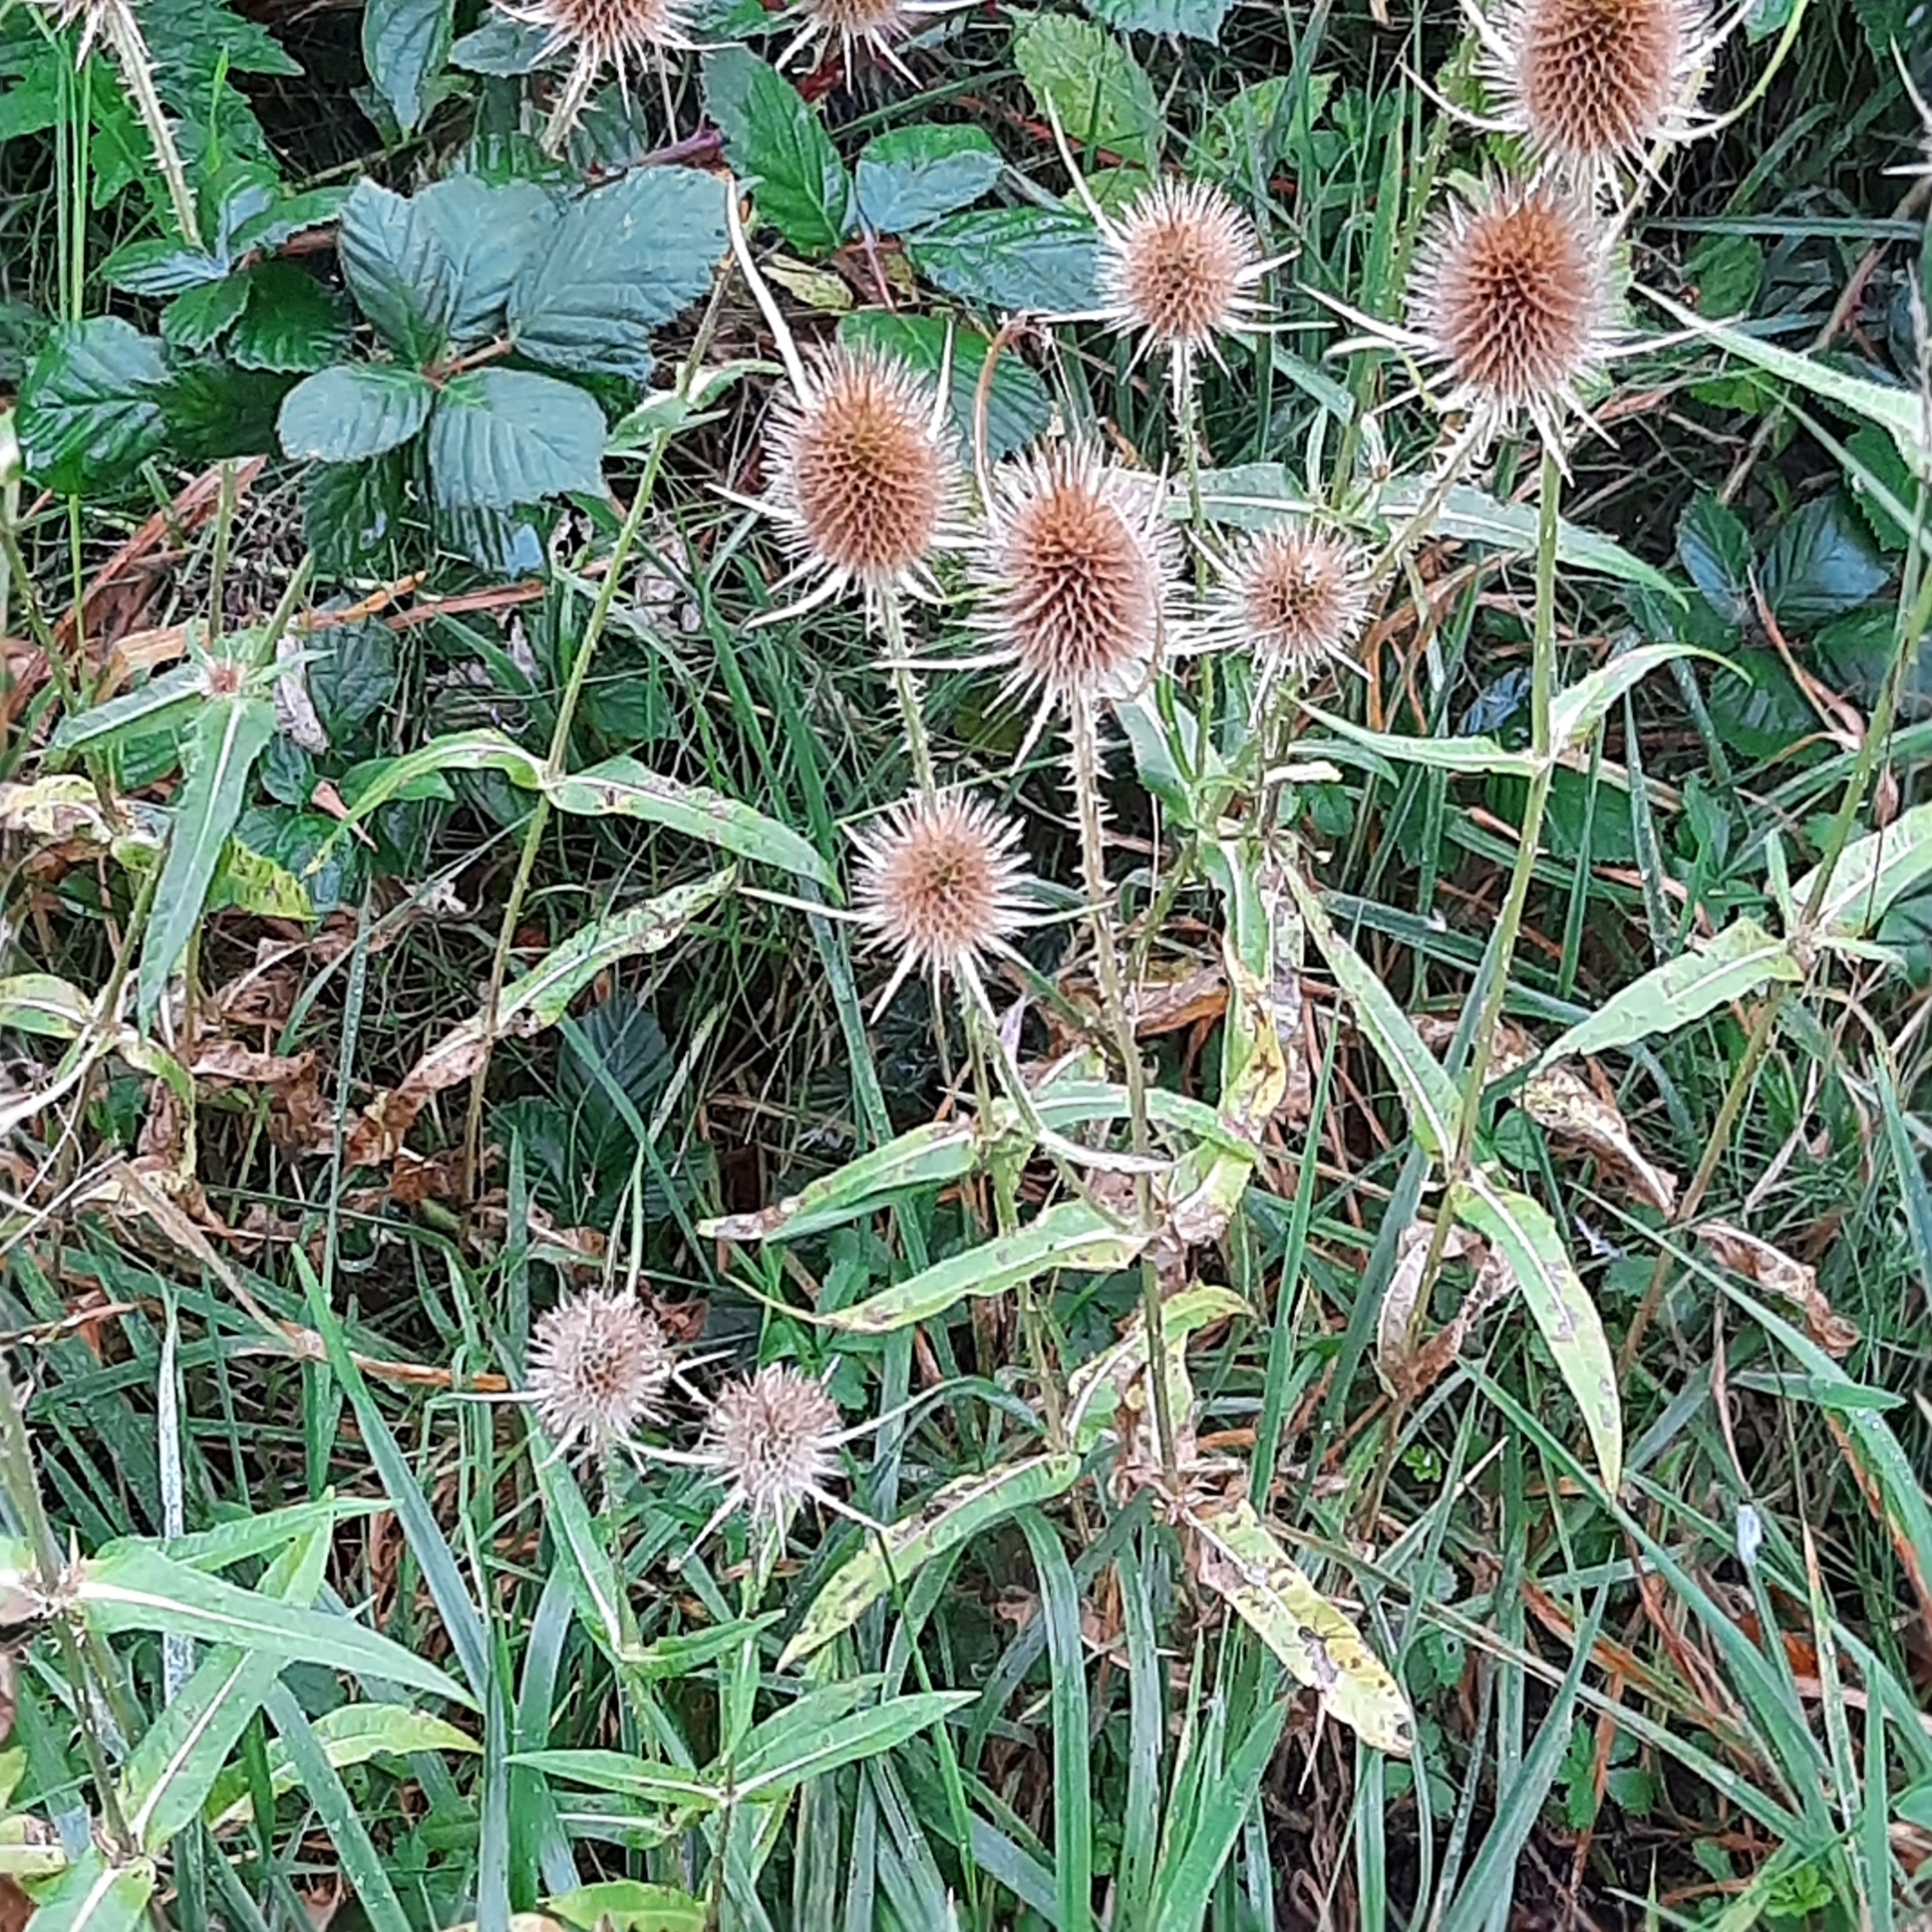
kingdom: Plantae
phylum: Tracheophyta
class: Magnoliopsida
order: Dipsacales
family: Caprifoliaceae
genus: Dipsacus
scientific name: Dipsacus fullonum
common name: Teasel
